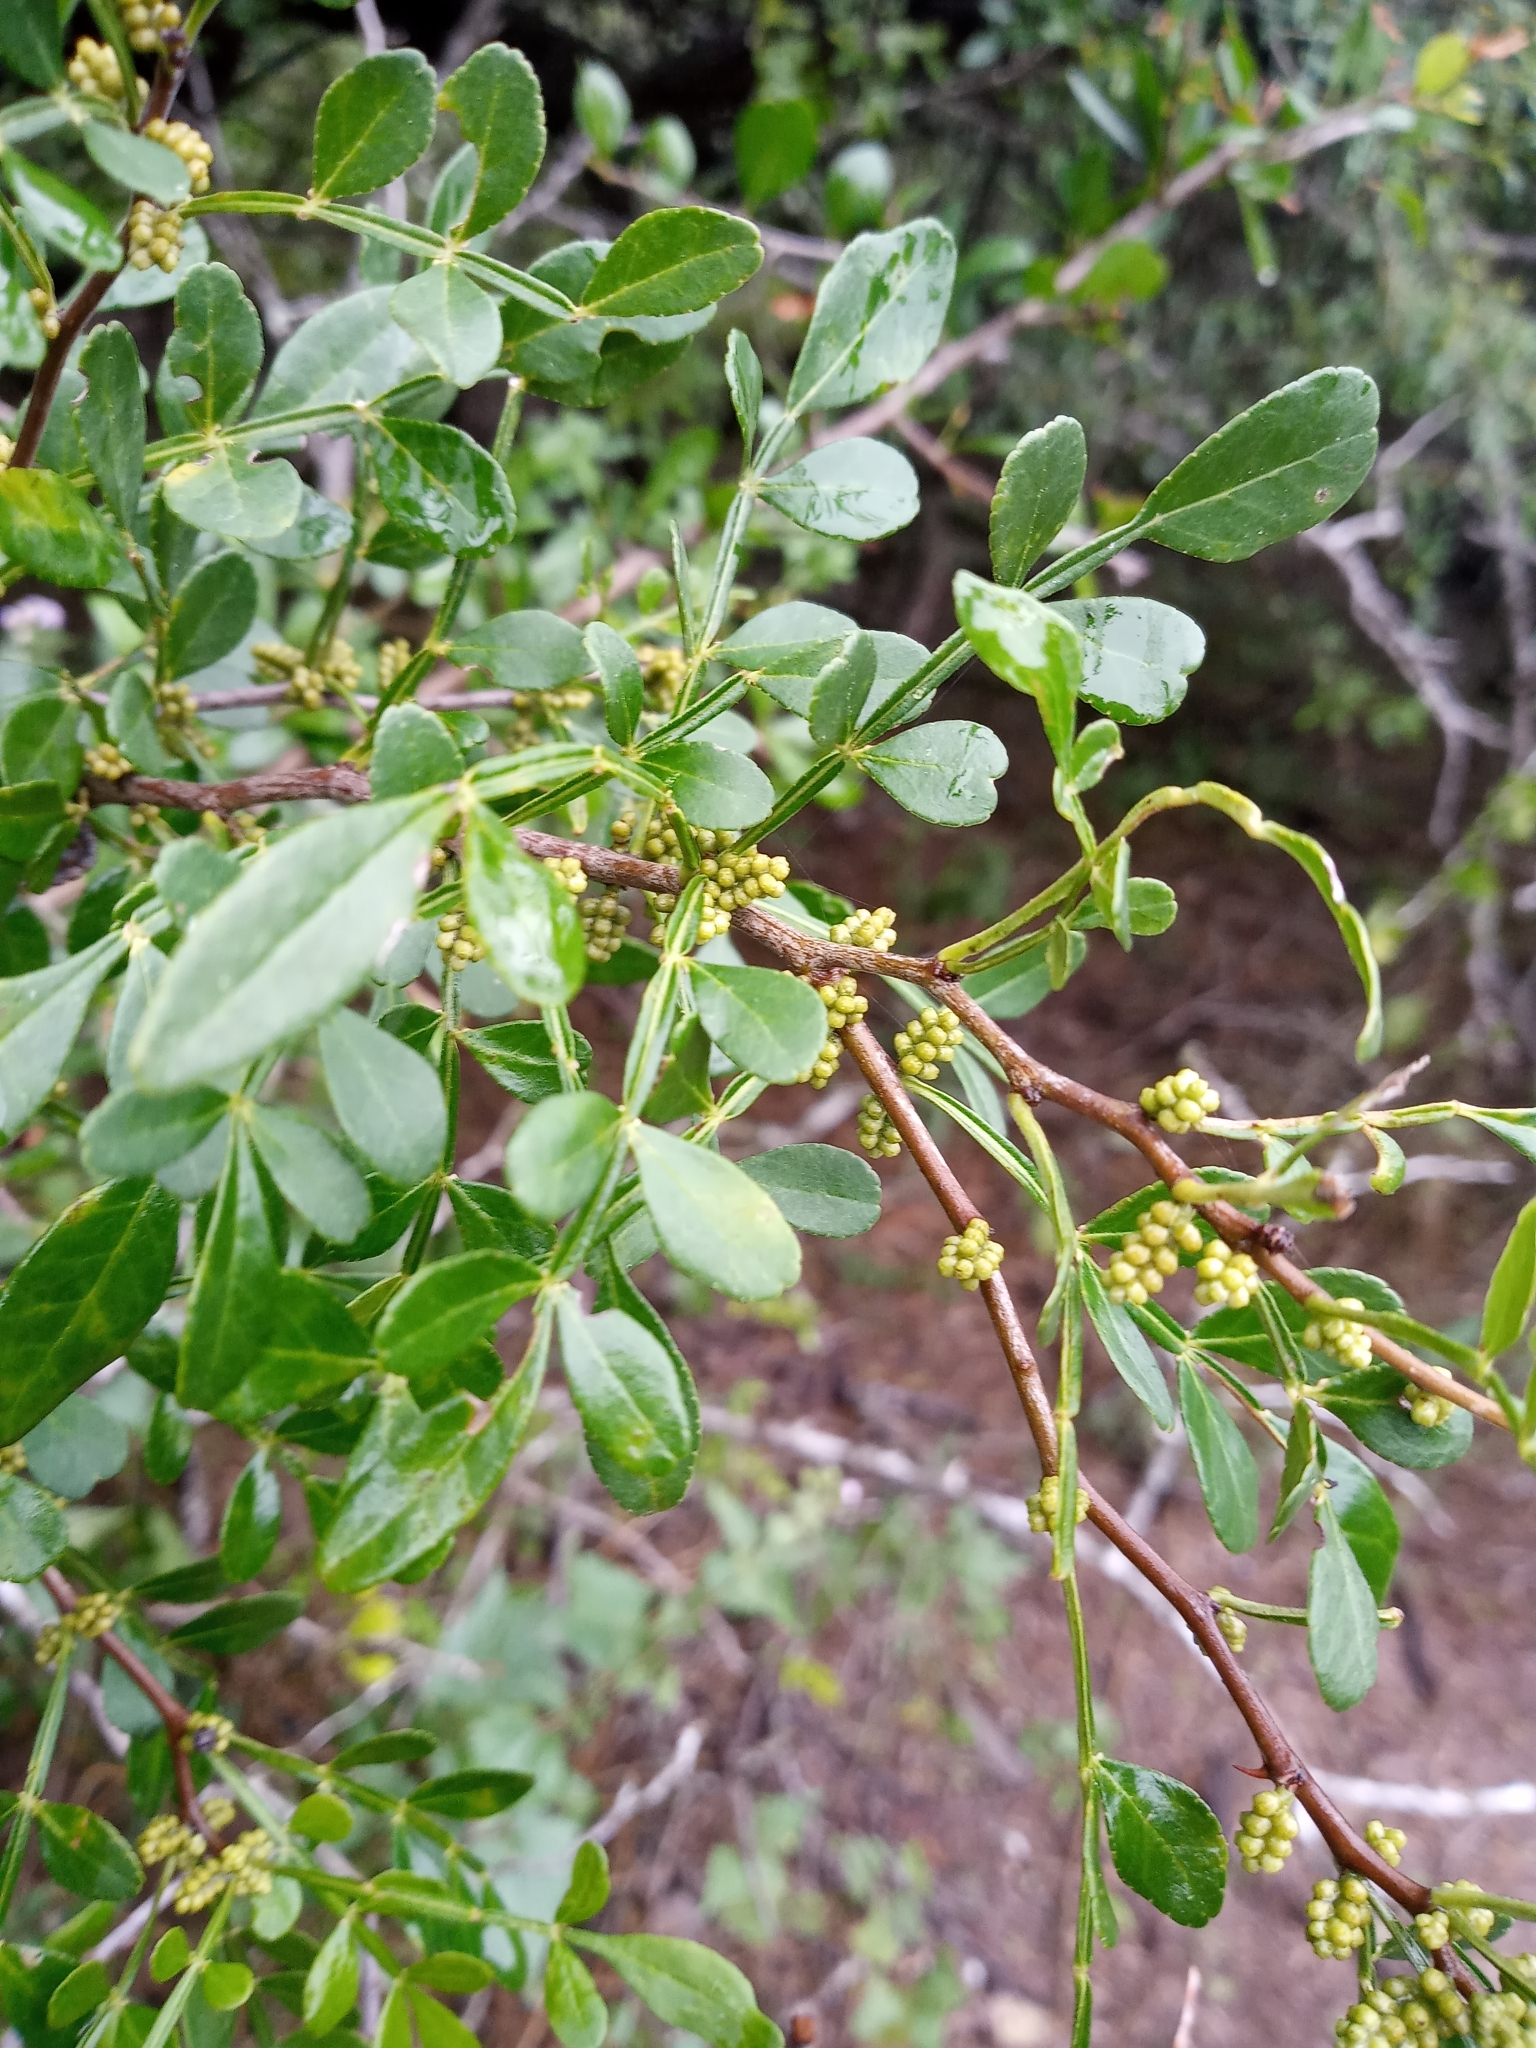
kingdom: Plantae
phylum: Tracheophyta
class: Magnoliopsida
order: Sapindales
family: Rutaceae
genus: Zanthoxylum
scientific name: Zanthoxylum fagara
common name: Lime prickly-ash
